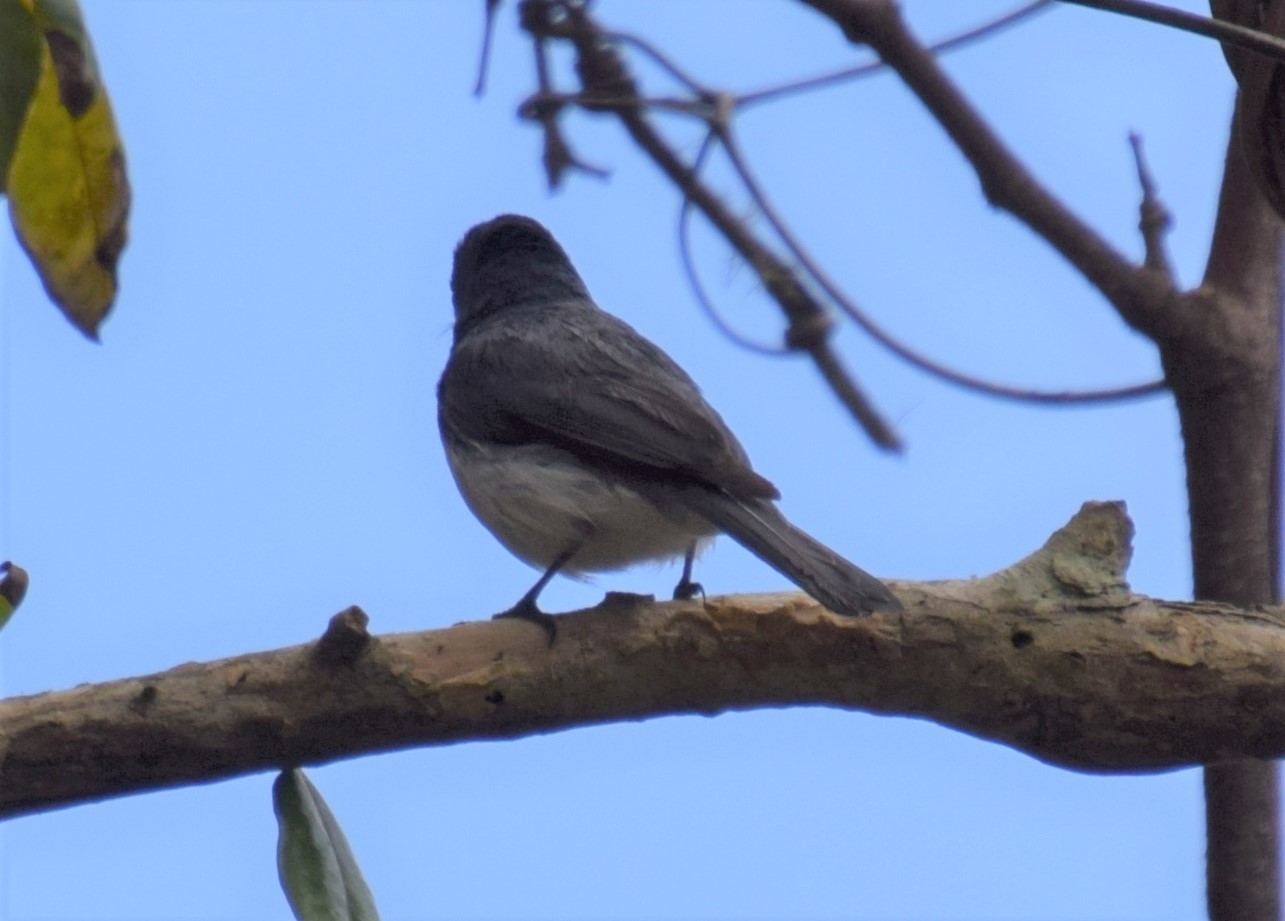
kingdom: Animalia
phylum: Chordata
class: Aves
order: Passeriformes
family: Monarchidae
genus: Myiagra
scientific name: Myiagra rubecula
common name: Leaden flycatcher
